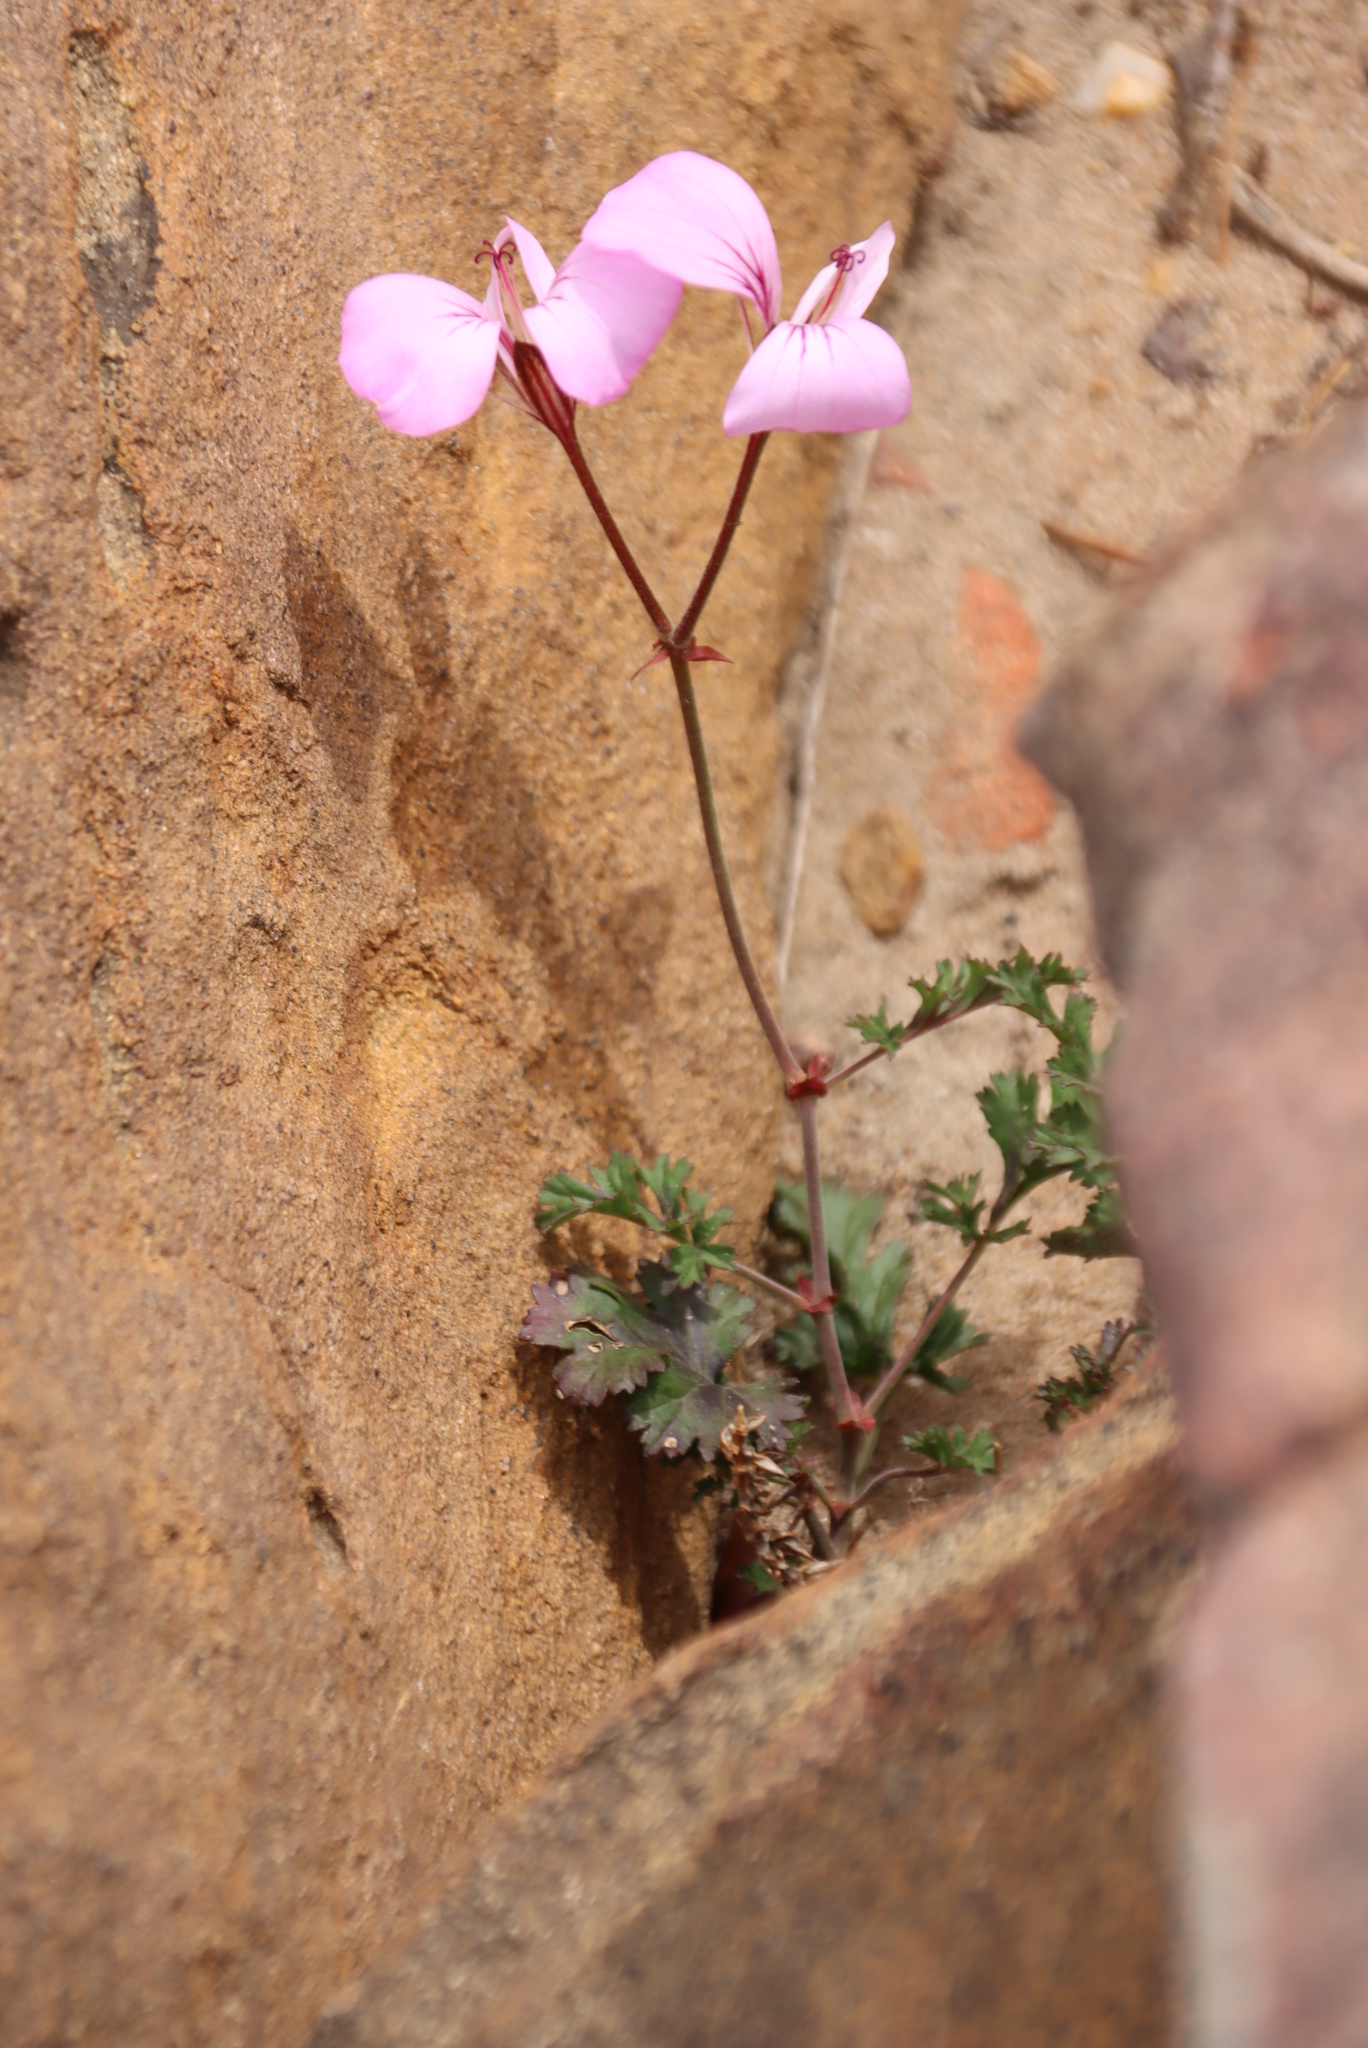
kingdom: Plantae
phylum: Tracheophyta
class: Magnoliopsida
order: Geraniales
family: Geraniaceae
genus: Pelargonium
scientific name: Pelargonium longicaule
